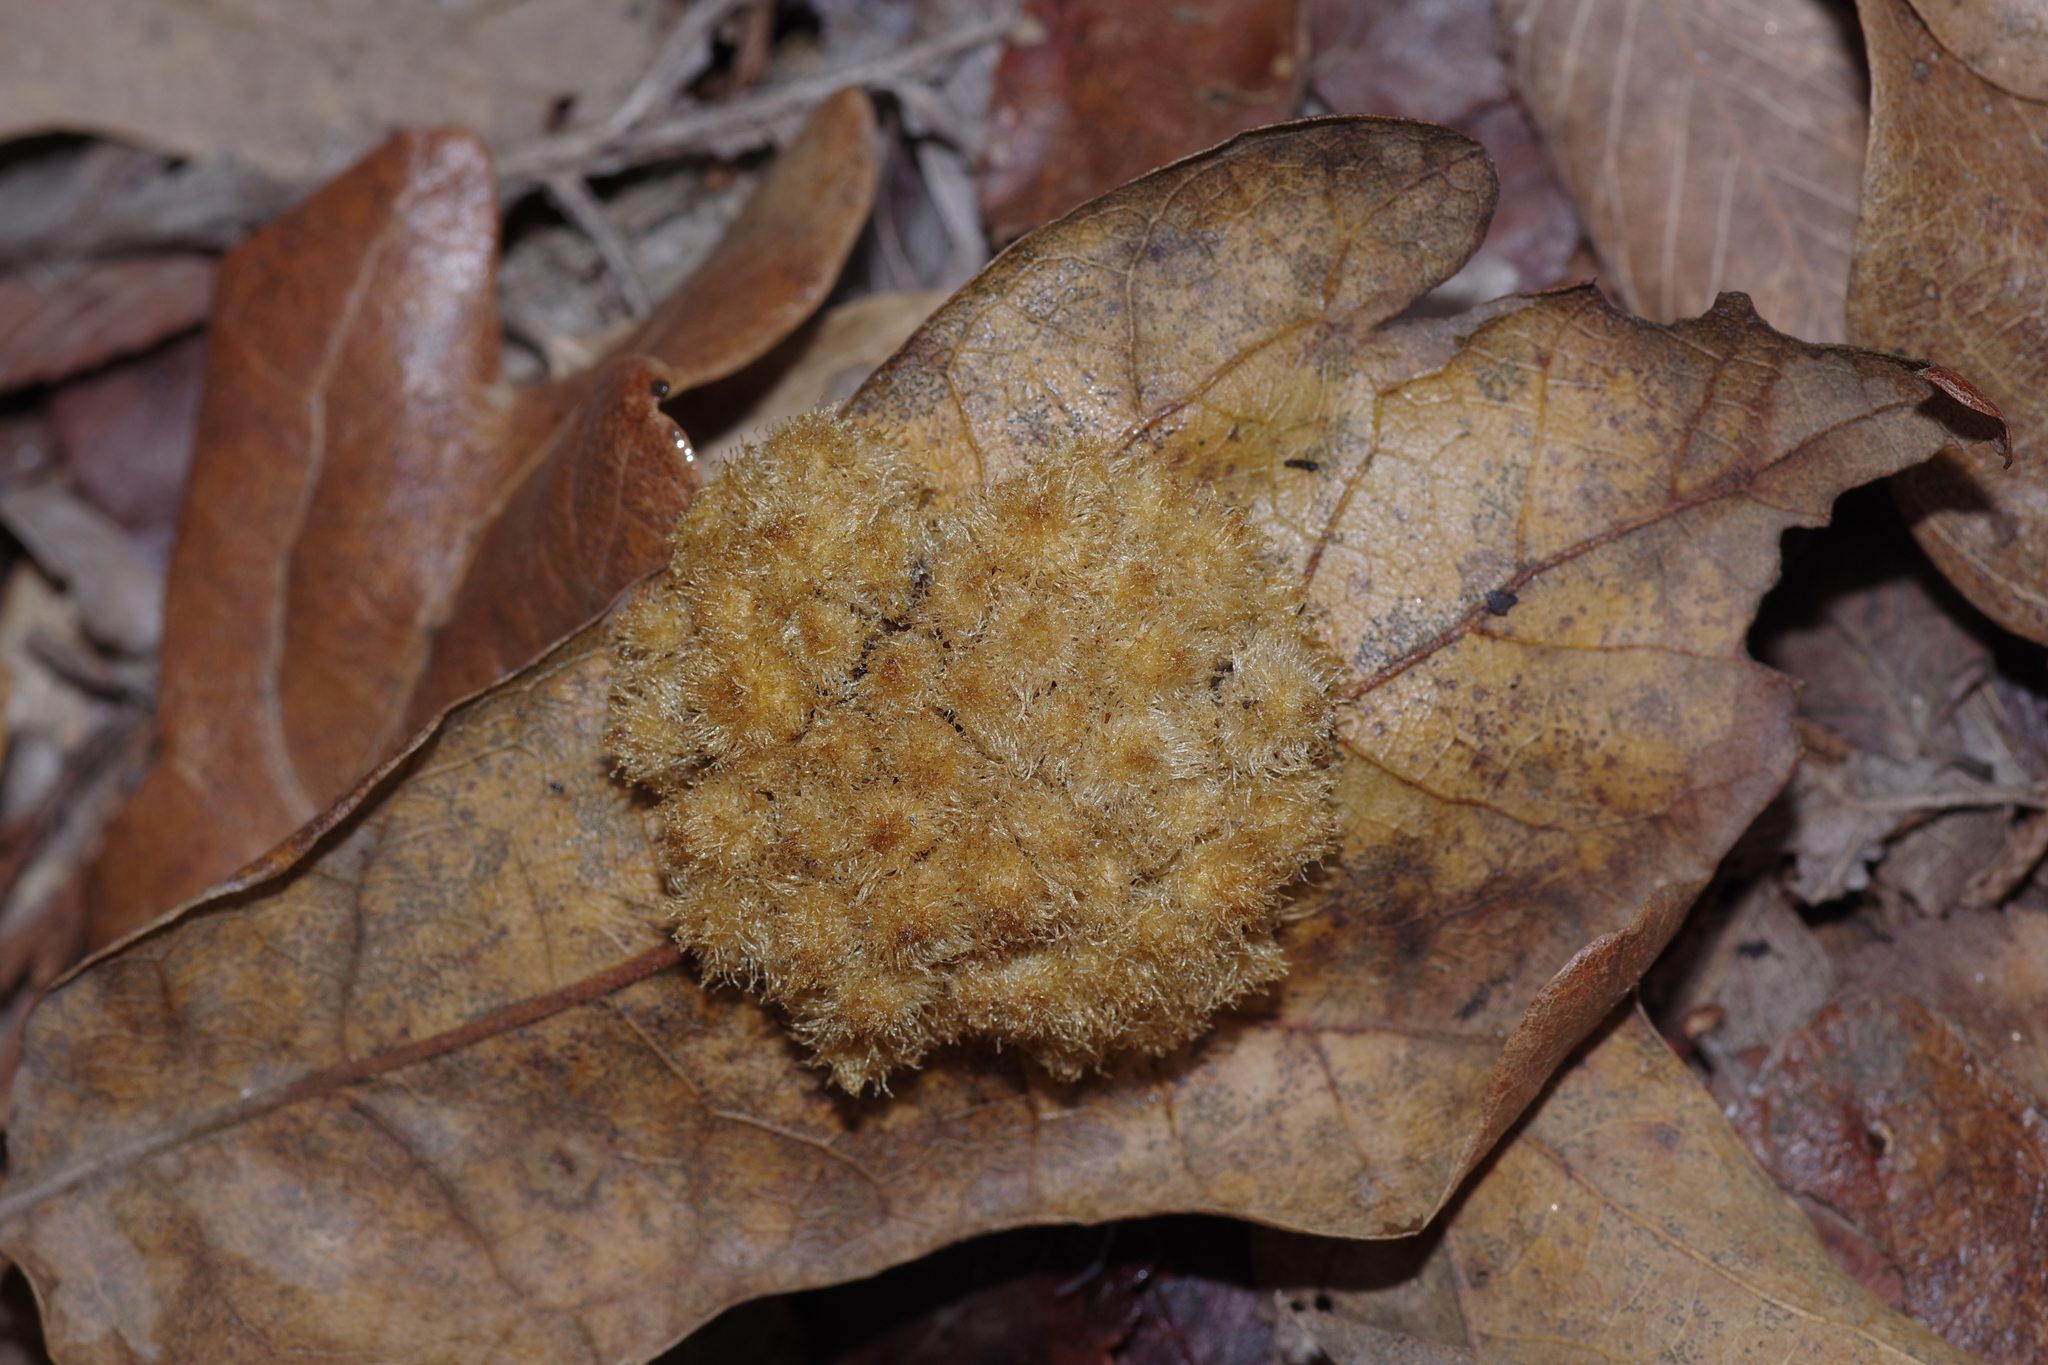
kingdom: Animalia
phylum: Arthropoda
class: Insecta
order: Hymenoptera
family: Cynipidae
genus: Andricus
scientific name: Andricus
